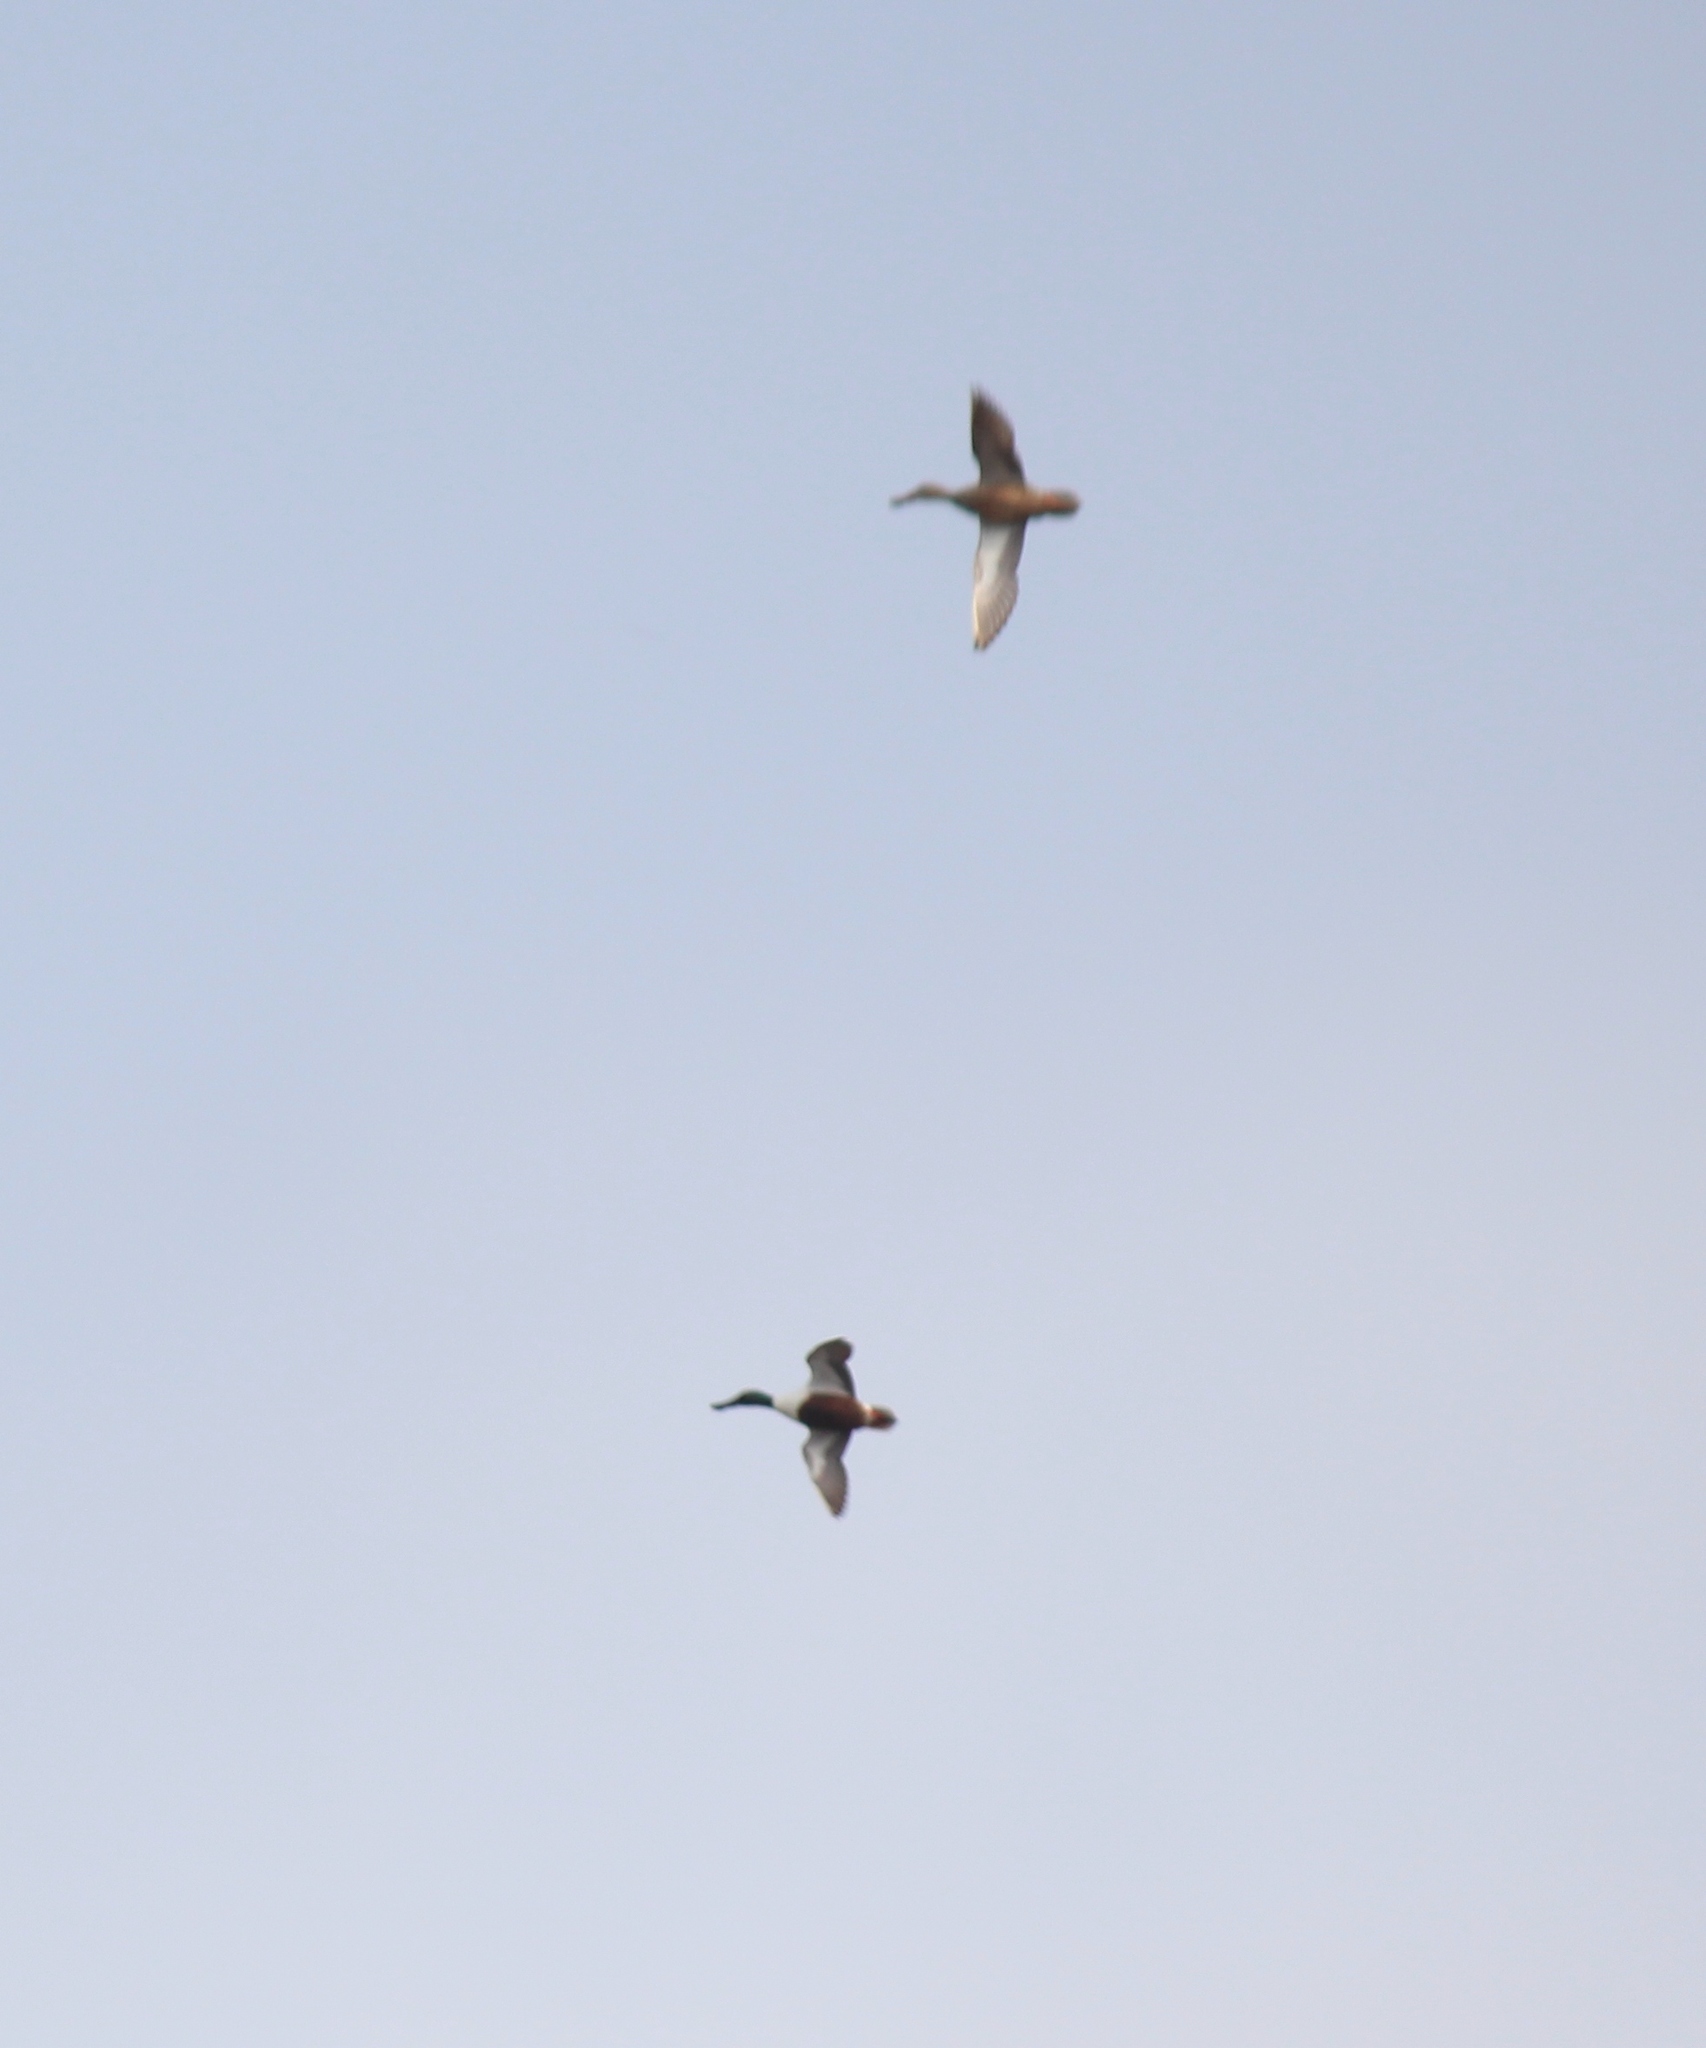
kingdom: Animalia
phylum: Chordata
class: Aves
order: Anseriformes
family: Anatidae
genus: Spatula
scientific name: Spatula clypeata
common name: Northern shoveler
